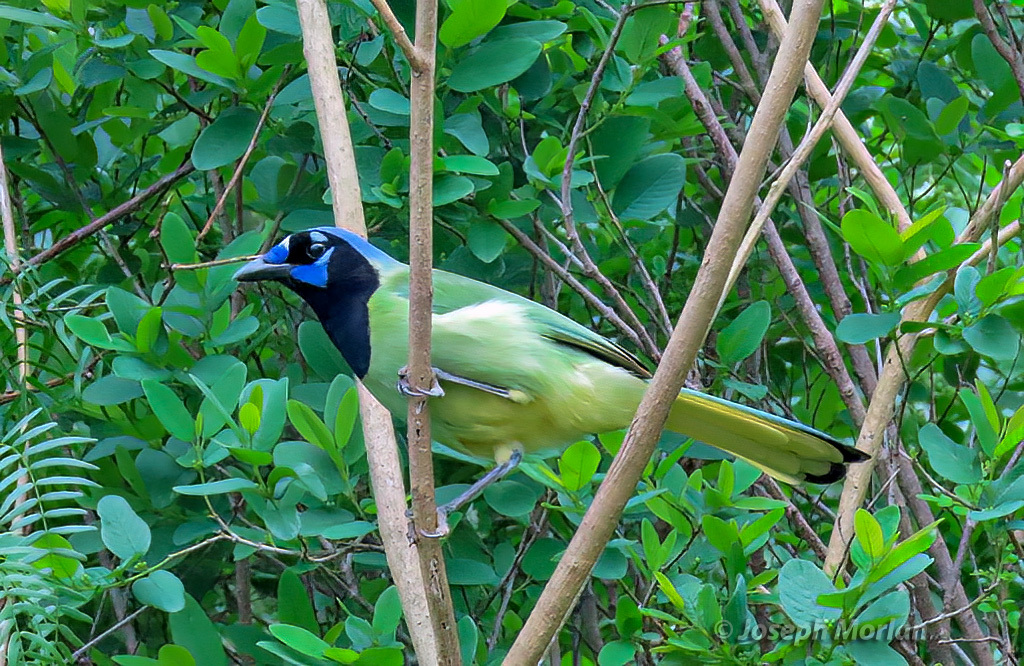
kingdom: Animalia
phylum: Chordata
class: Aves
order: Passeriformes
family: Corvidae
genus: Cyanocorax
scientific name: Cyanocorax yncas
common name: Green jay
